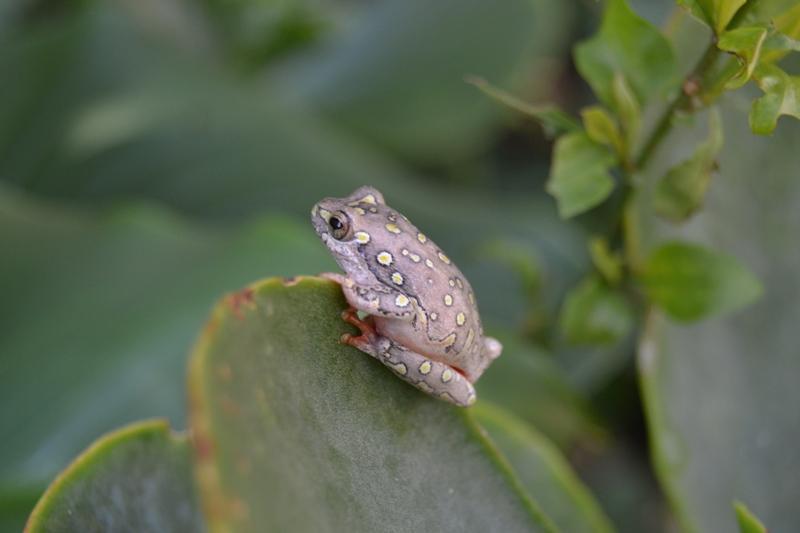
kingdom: Animalia
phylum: Chordata
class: Amphibia
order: Anura
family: Hyperoliidae
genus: Hyperolius
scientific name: Hyperolius marmoratus
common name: Painted reed frog
